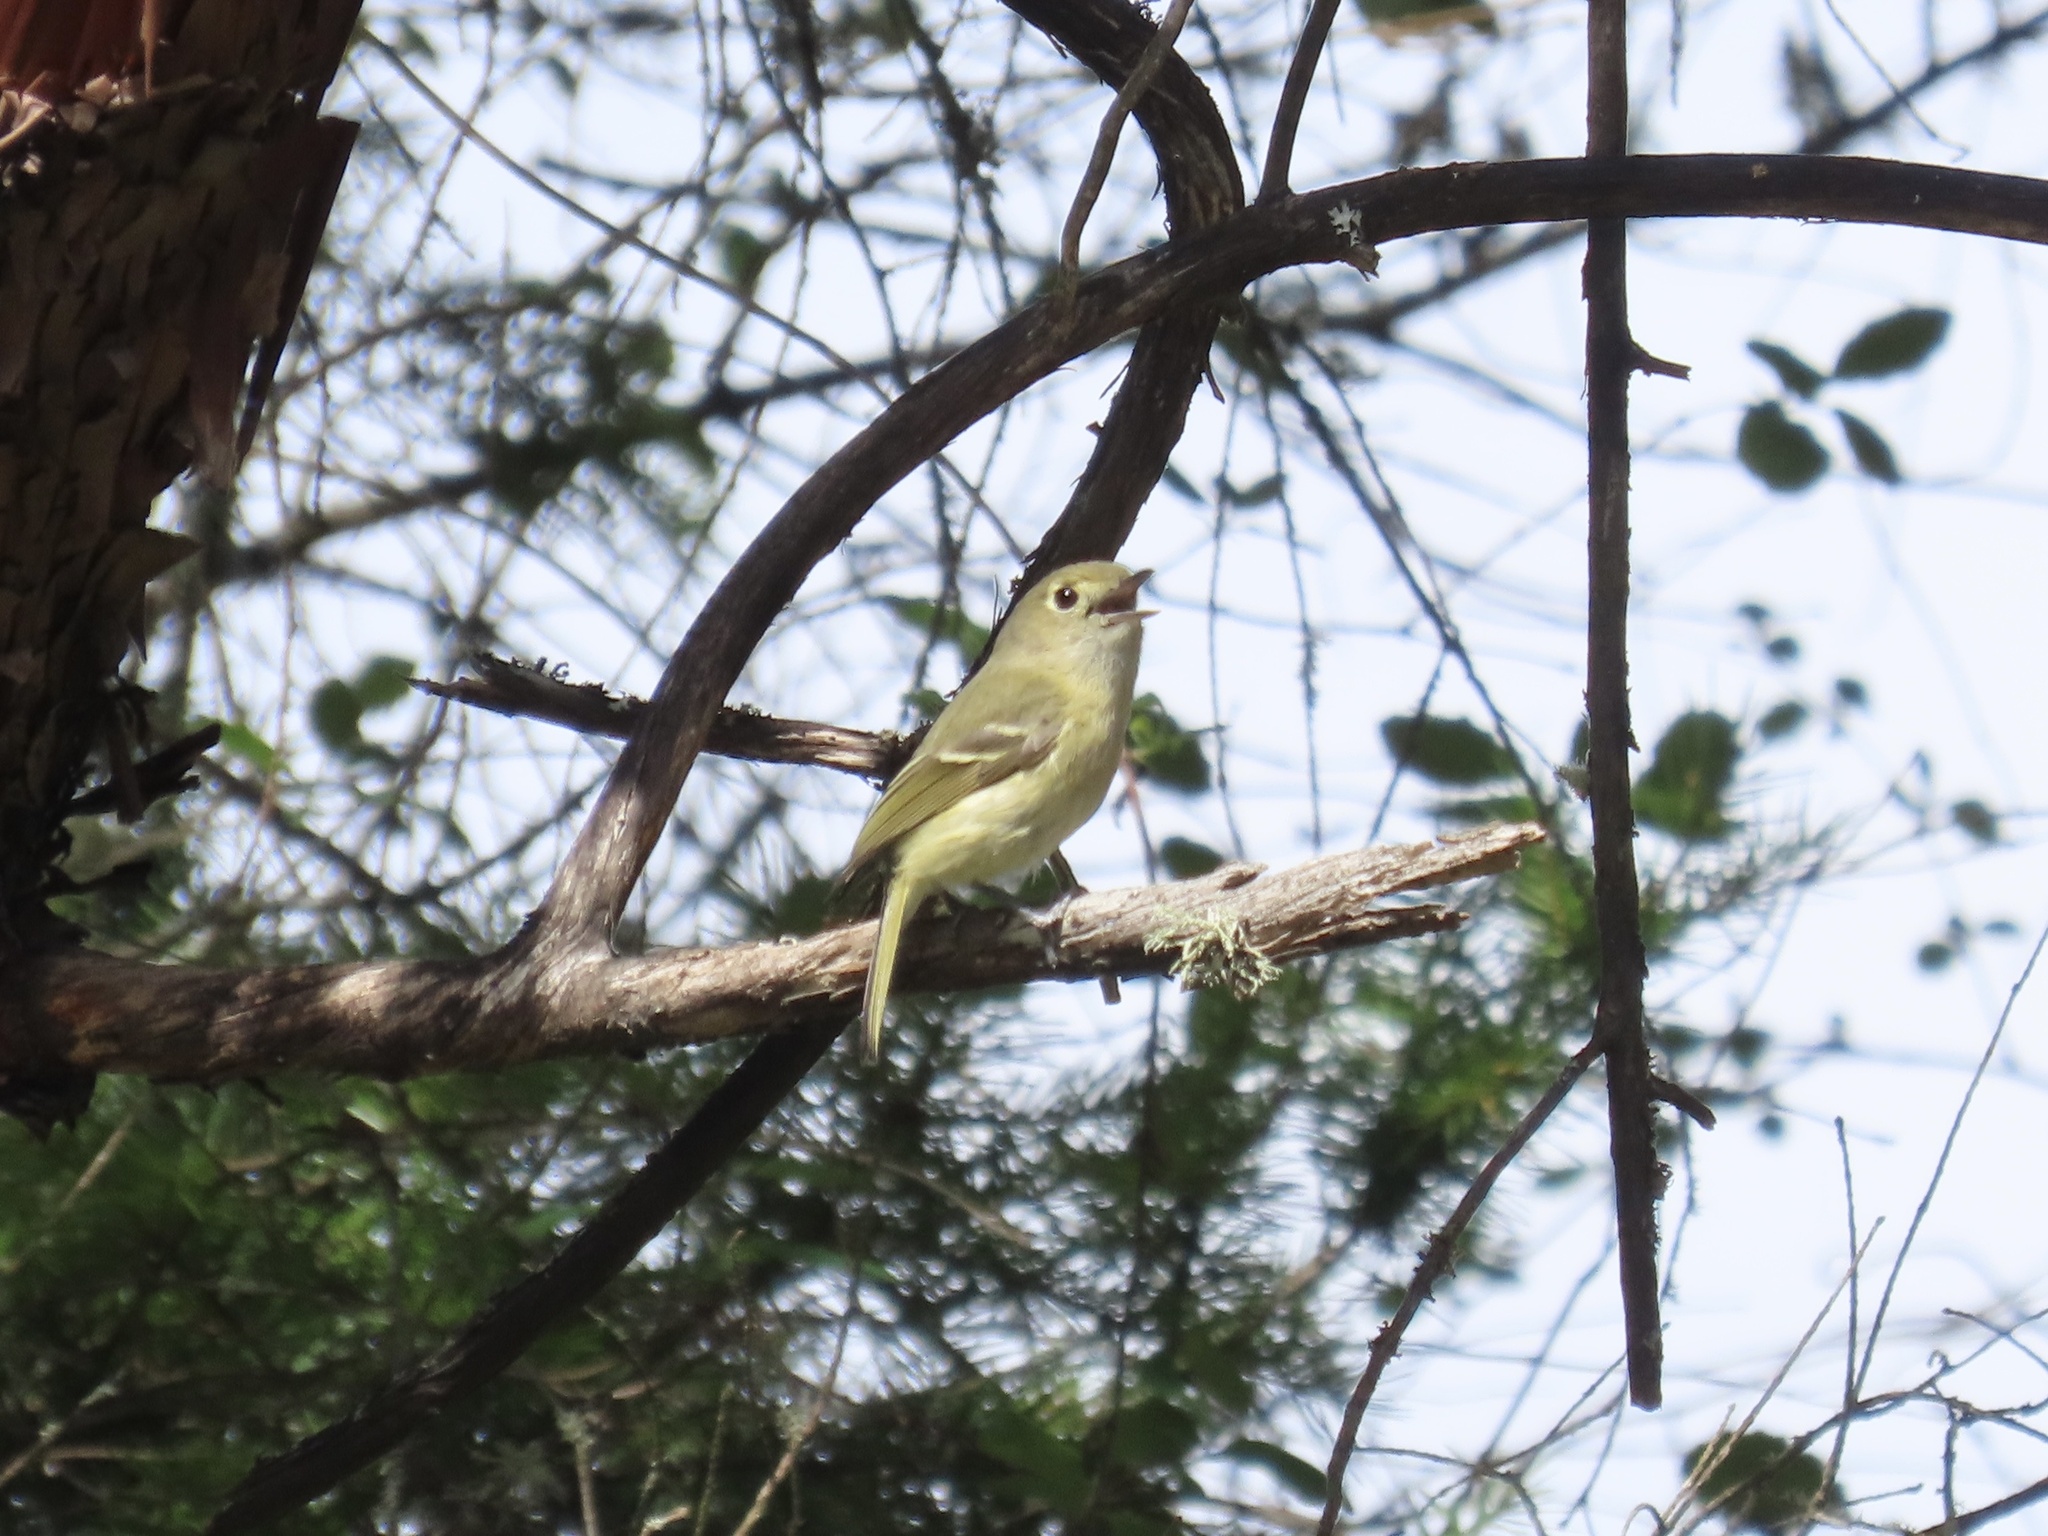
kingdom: Animalia
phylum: Chordata
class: Aves
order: Passeriformes
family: Vireonidae
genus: Vireo
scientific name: Vireo huttoni
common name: Hutton's vireo
